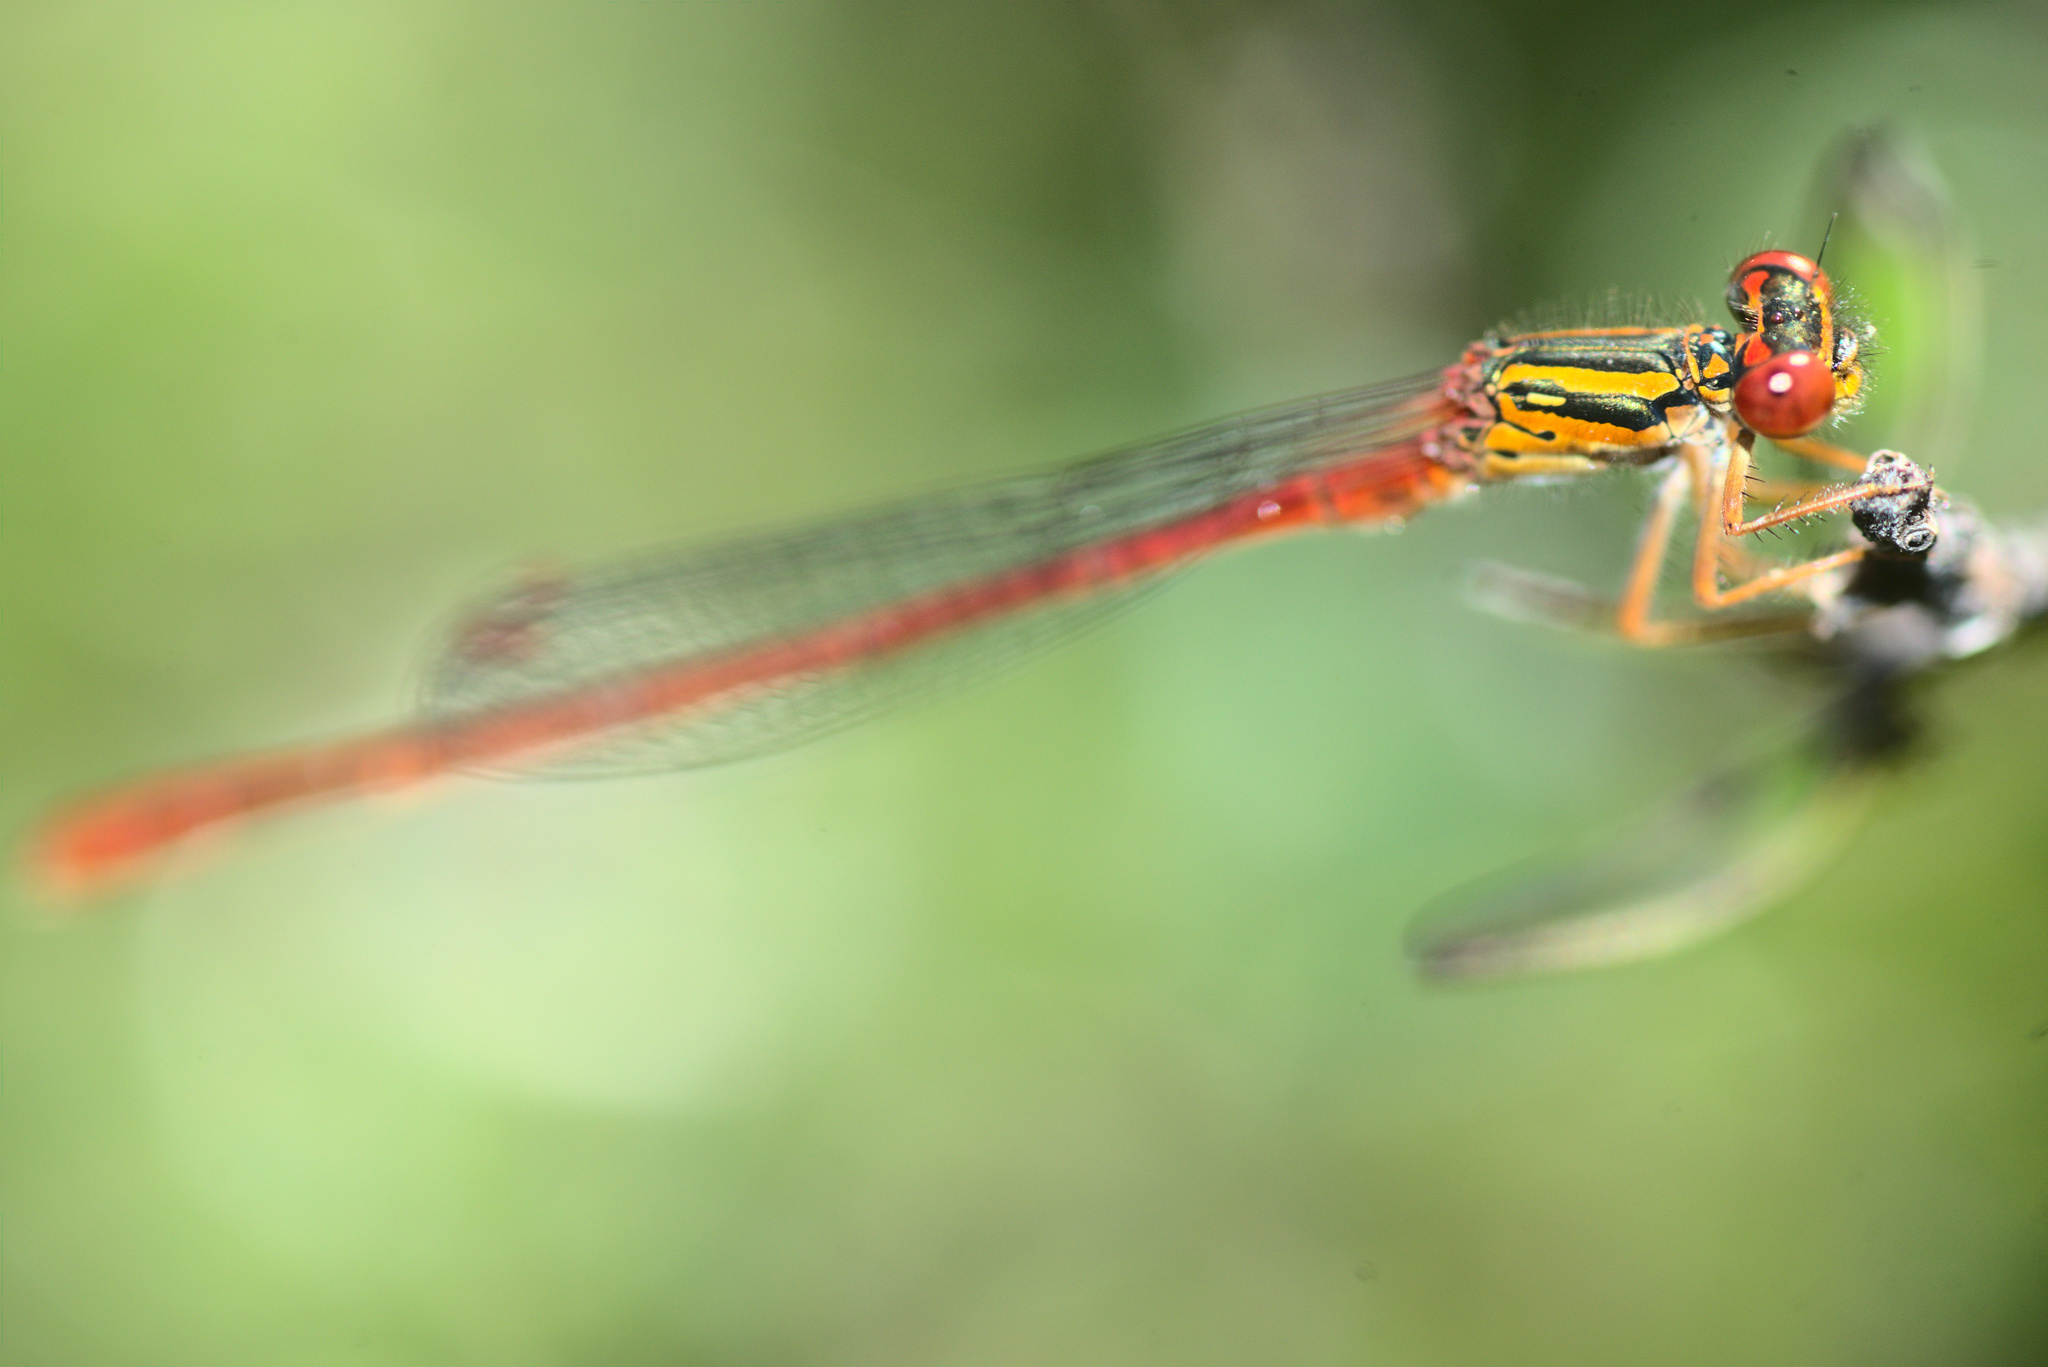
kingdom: Animalia
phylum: Arthropoda
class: Insecta
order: Odonata
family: Coenagrionidae
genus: Xanthocnemis
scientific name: Xanthocnemis zealandica
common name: Common redcoat damselfly
